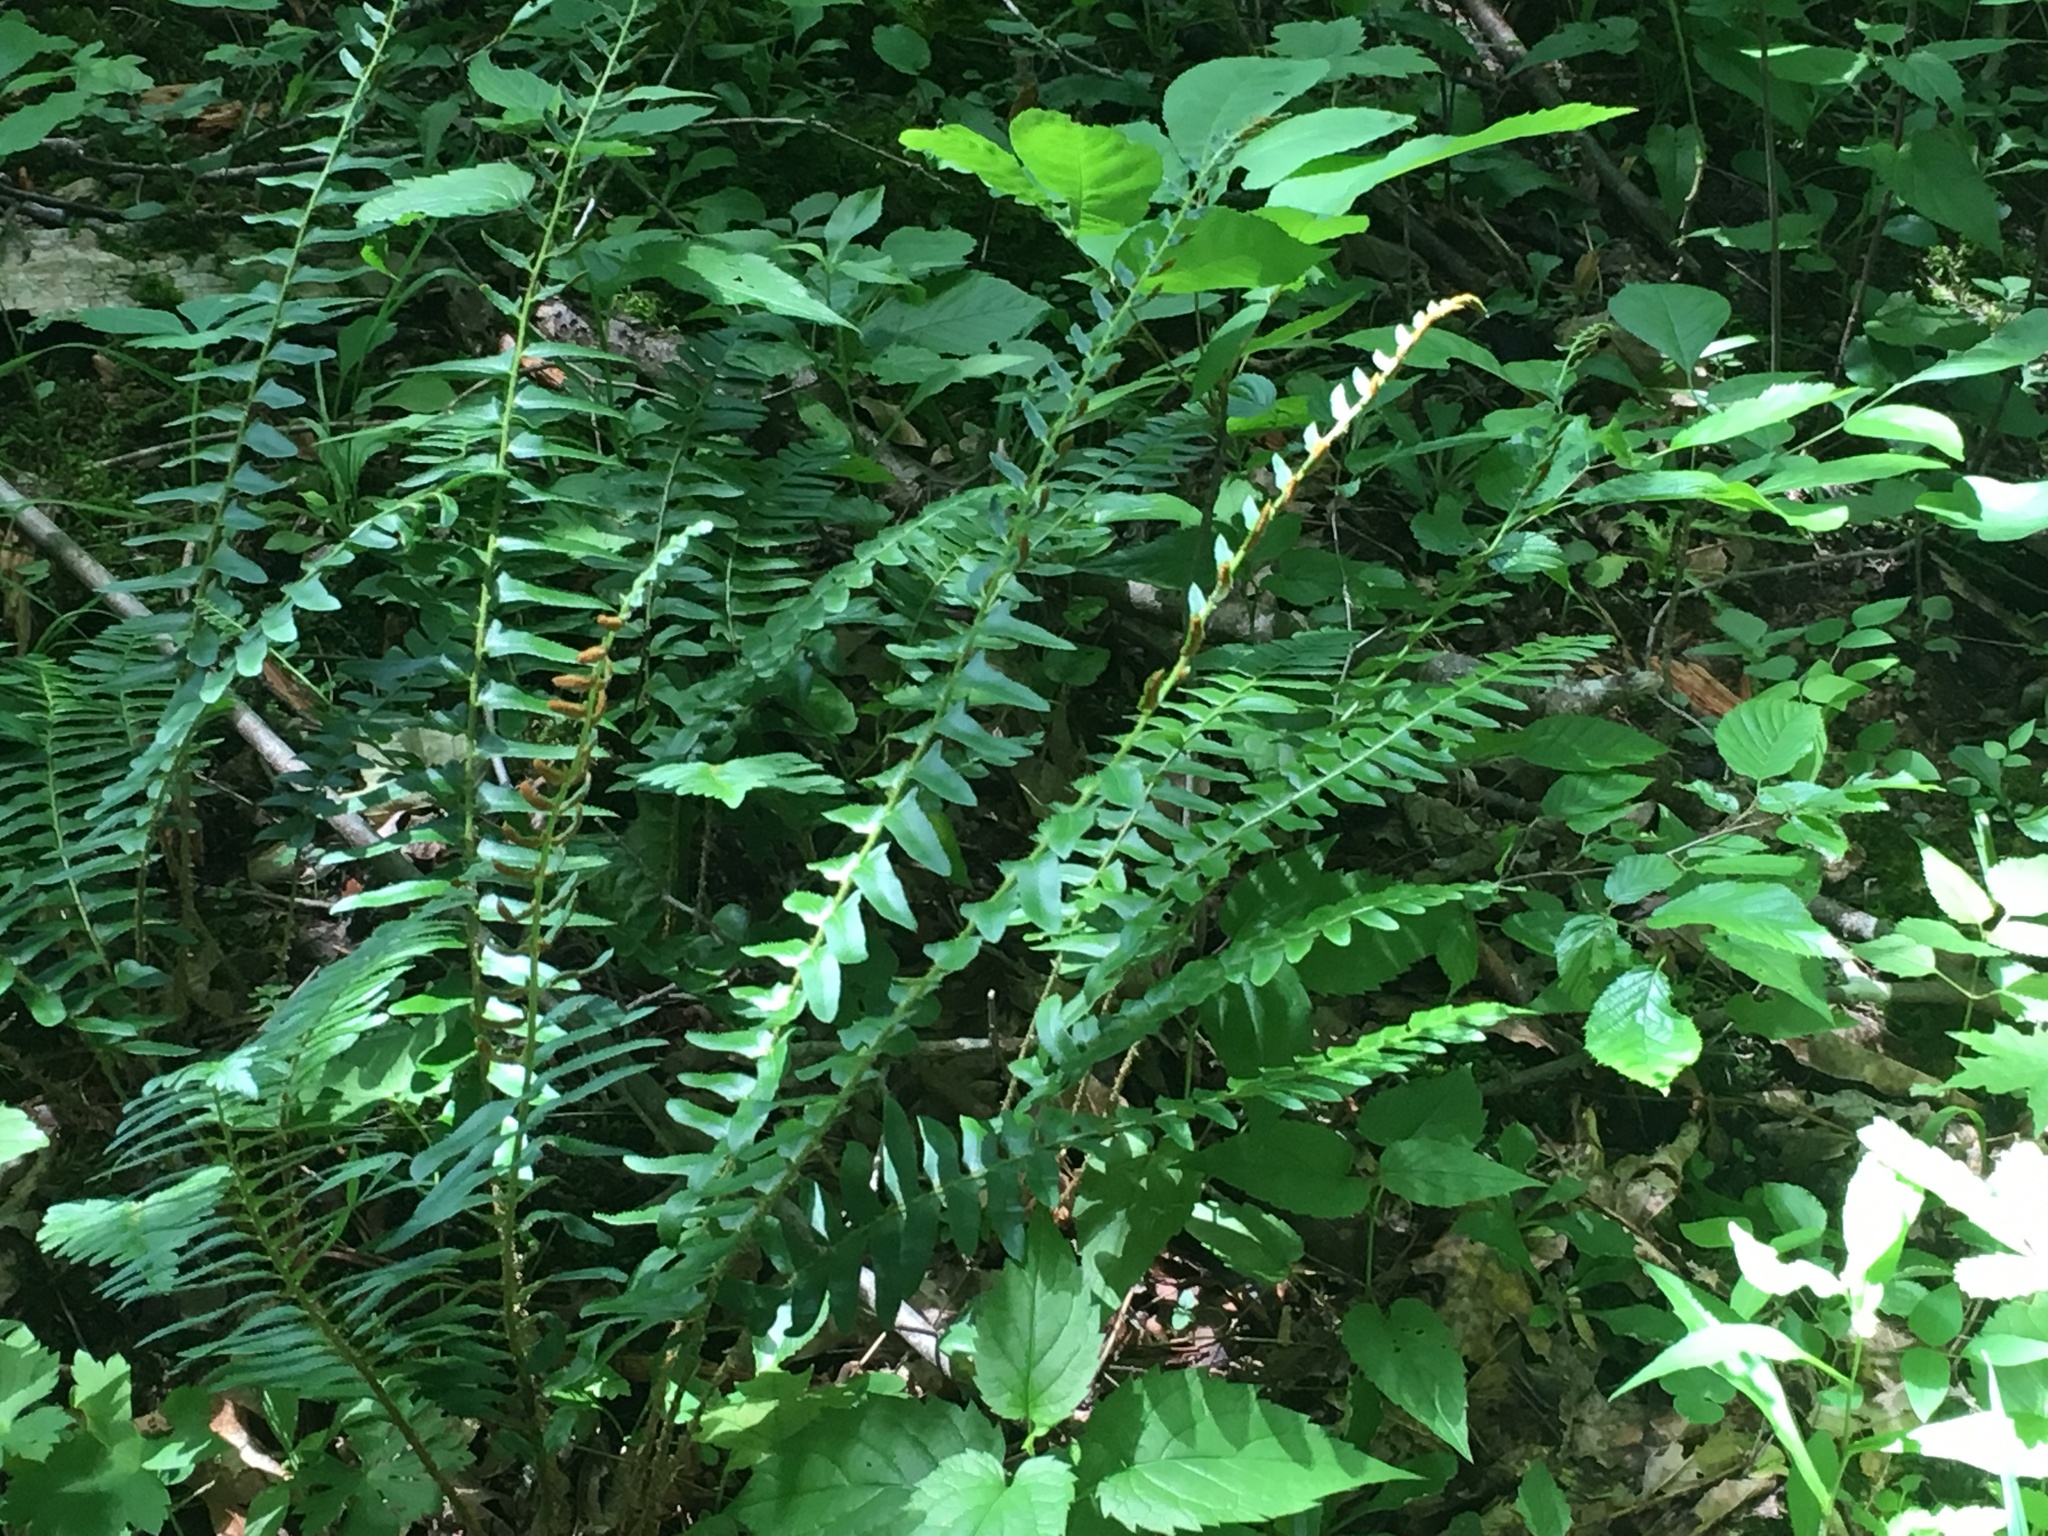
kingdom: Plantae
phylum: Tracheophyta
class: Polypodiopsida
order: Polypodiales
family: Dryopteridaceae
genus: Polystichum
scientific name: Polystichum acrostichoides
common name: Christmas fern
